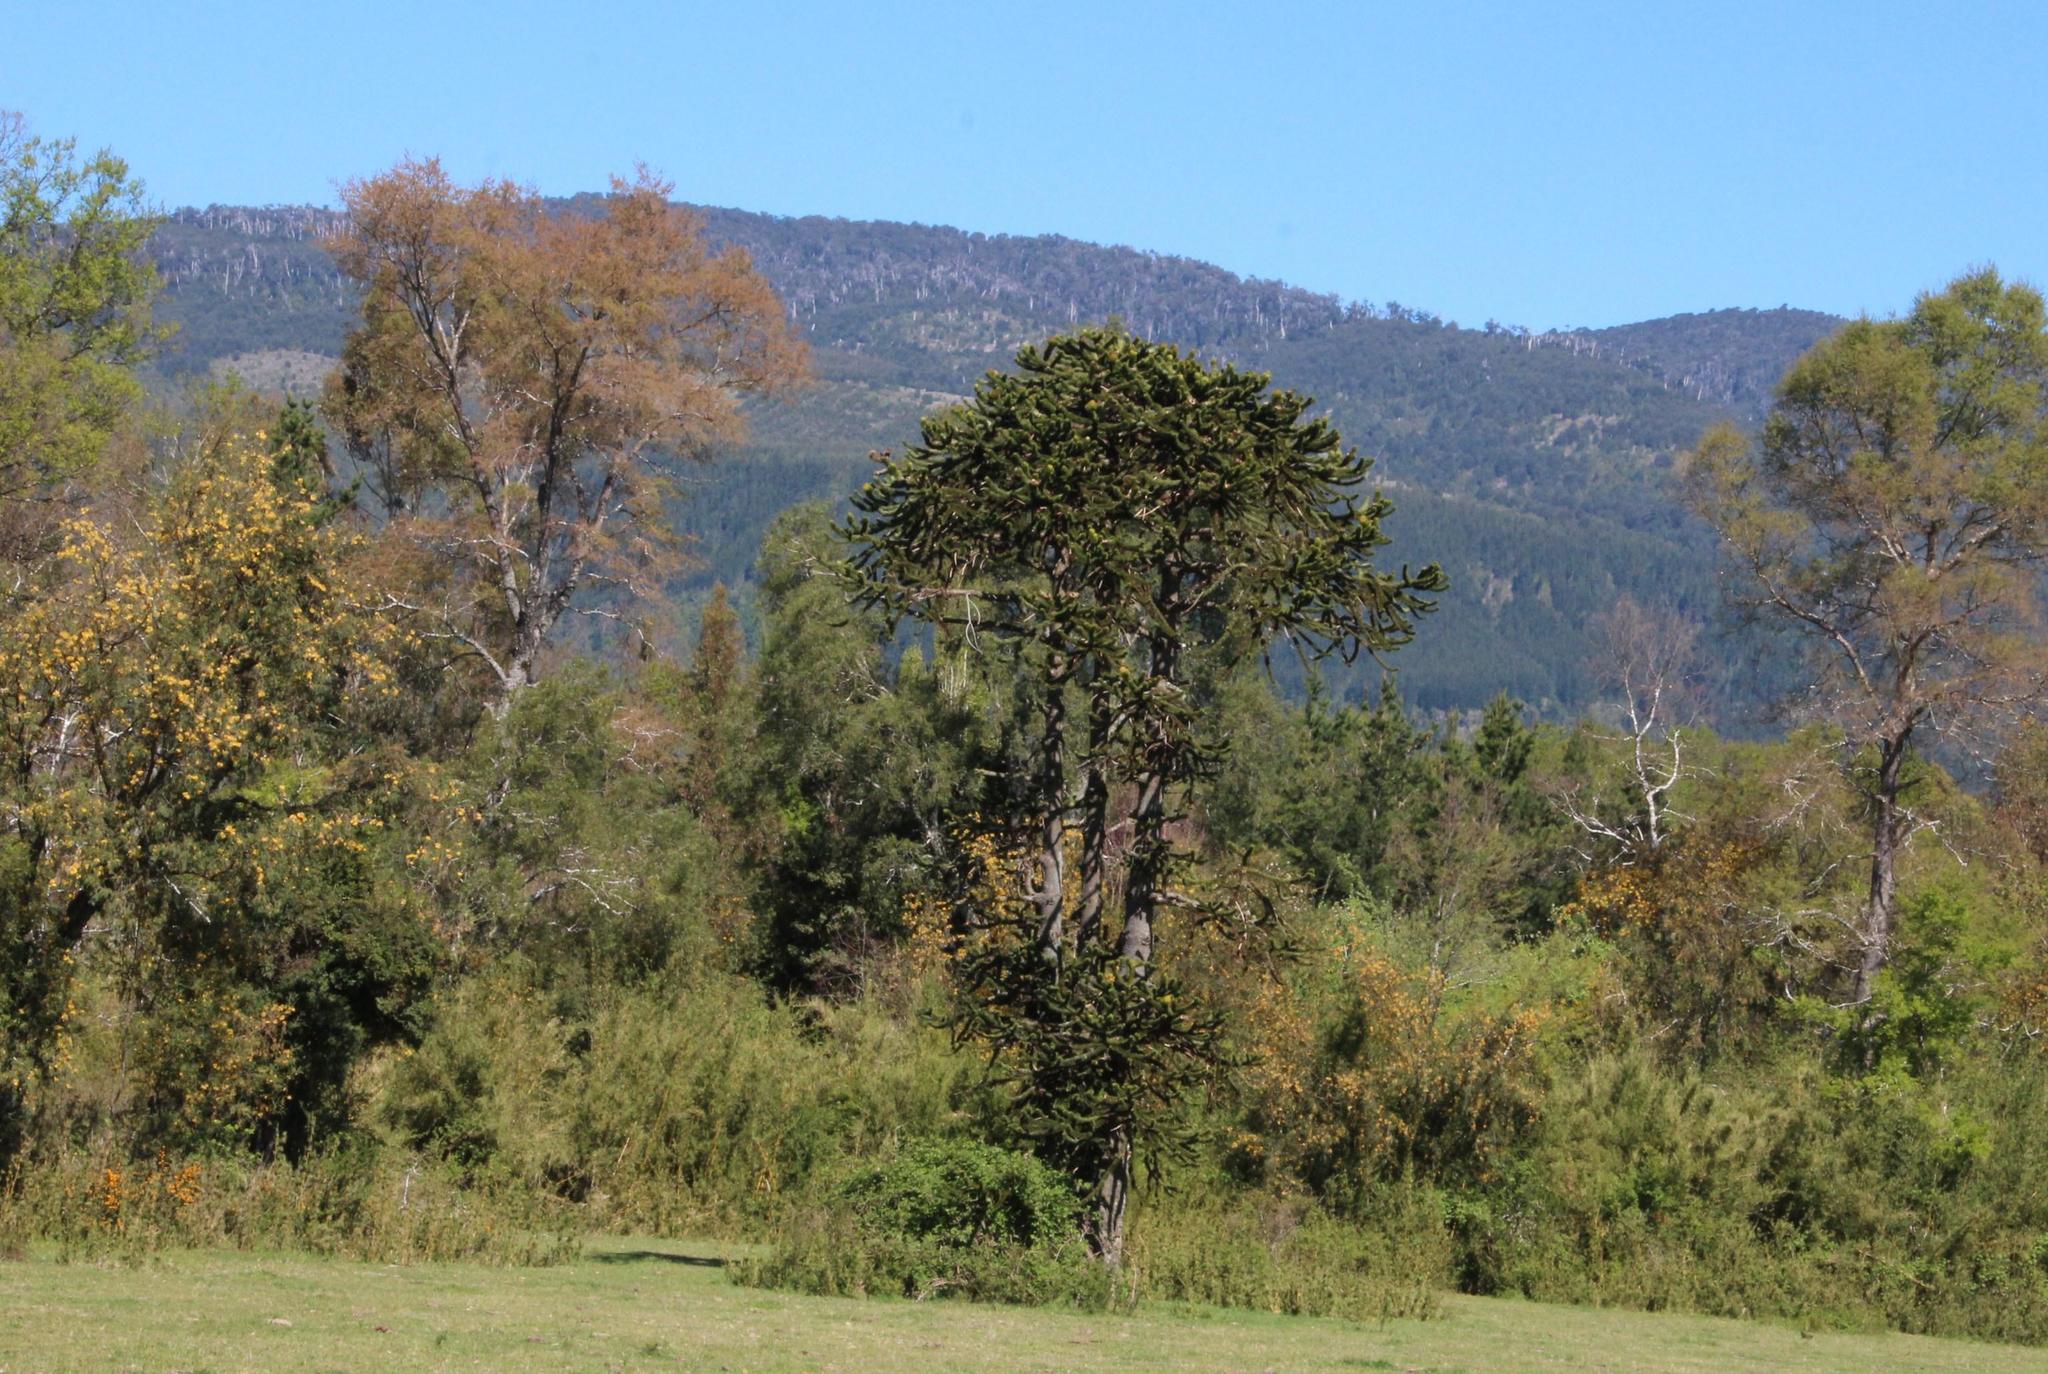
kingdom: Plantae
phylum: Tracheophyta
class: Pinopsida
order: Pinales
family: Araucariaceae
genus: Araucaria
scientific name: Araucaria araucana
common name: Monkey-puzzle
